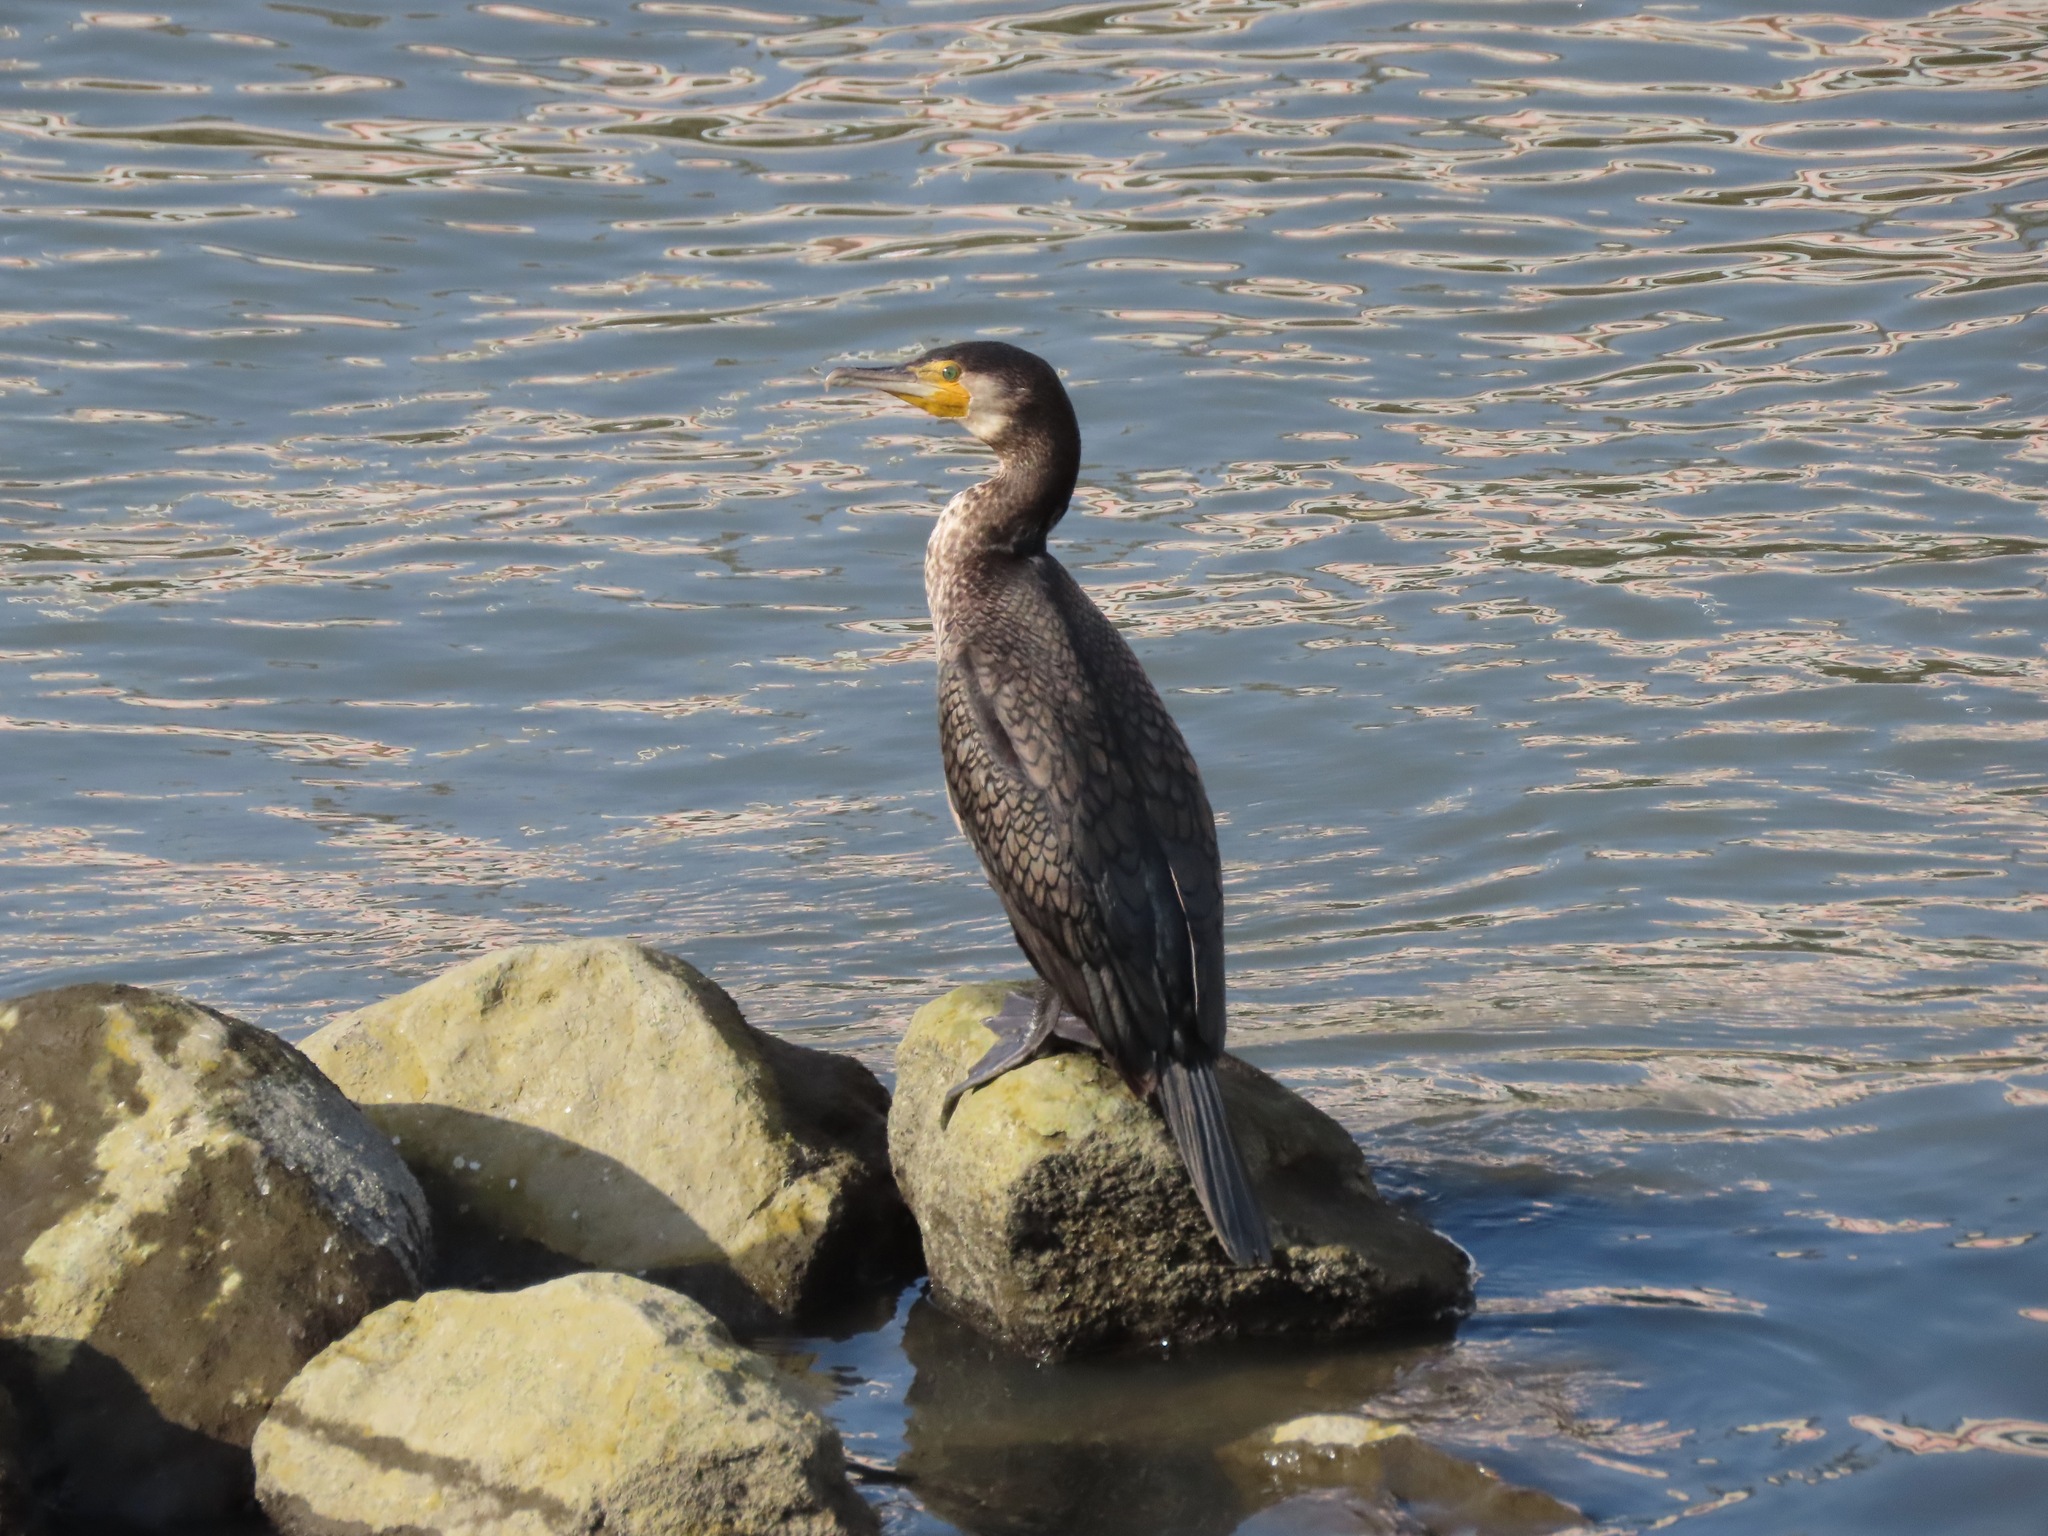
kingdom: Animalia
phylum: Chordata
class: Aves
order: Suliformes
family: Phalacrocoracidae
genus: Phalacrocorax
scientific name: Phalacrocorax carbo
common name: Great cormorant
